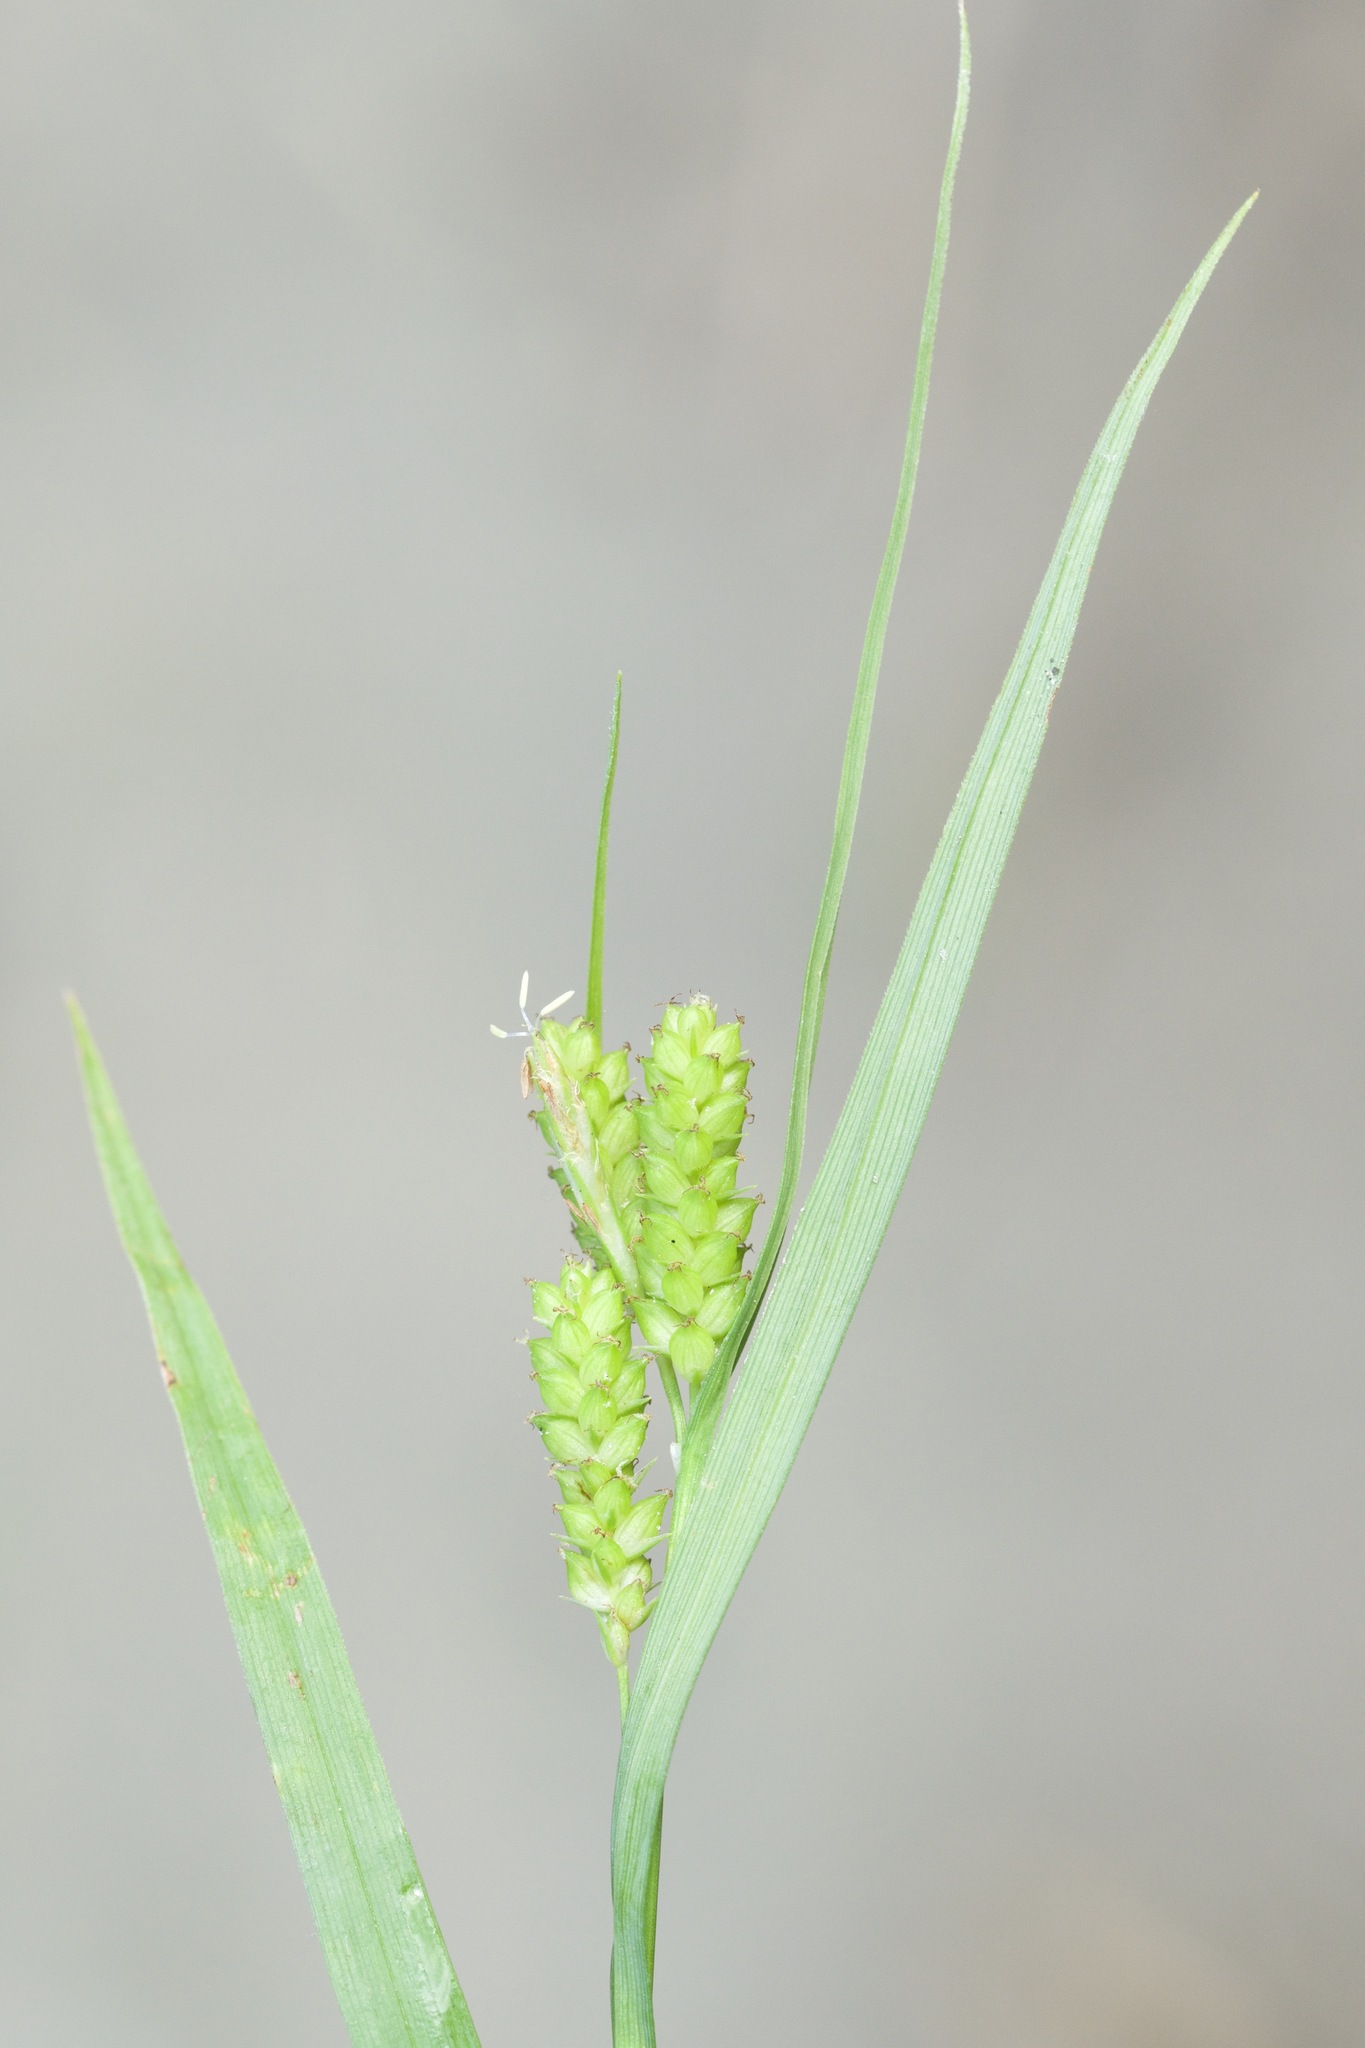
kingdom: Plantae
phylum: Tracheophyta
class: Liliopsida
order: Poales
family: Cyperaceae
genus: Carex
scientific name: Carex granularis
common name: Granular sedge
